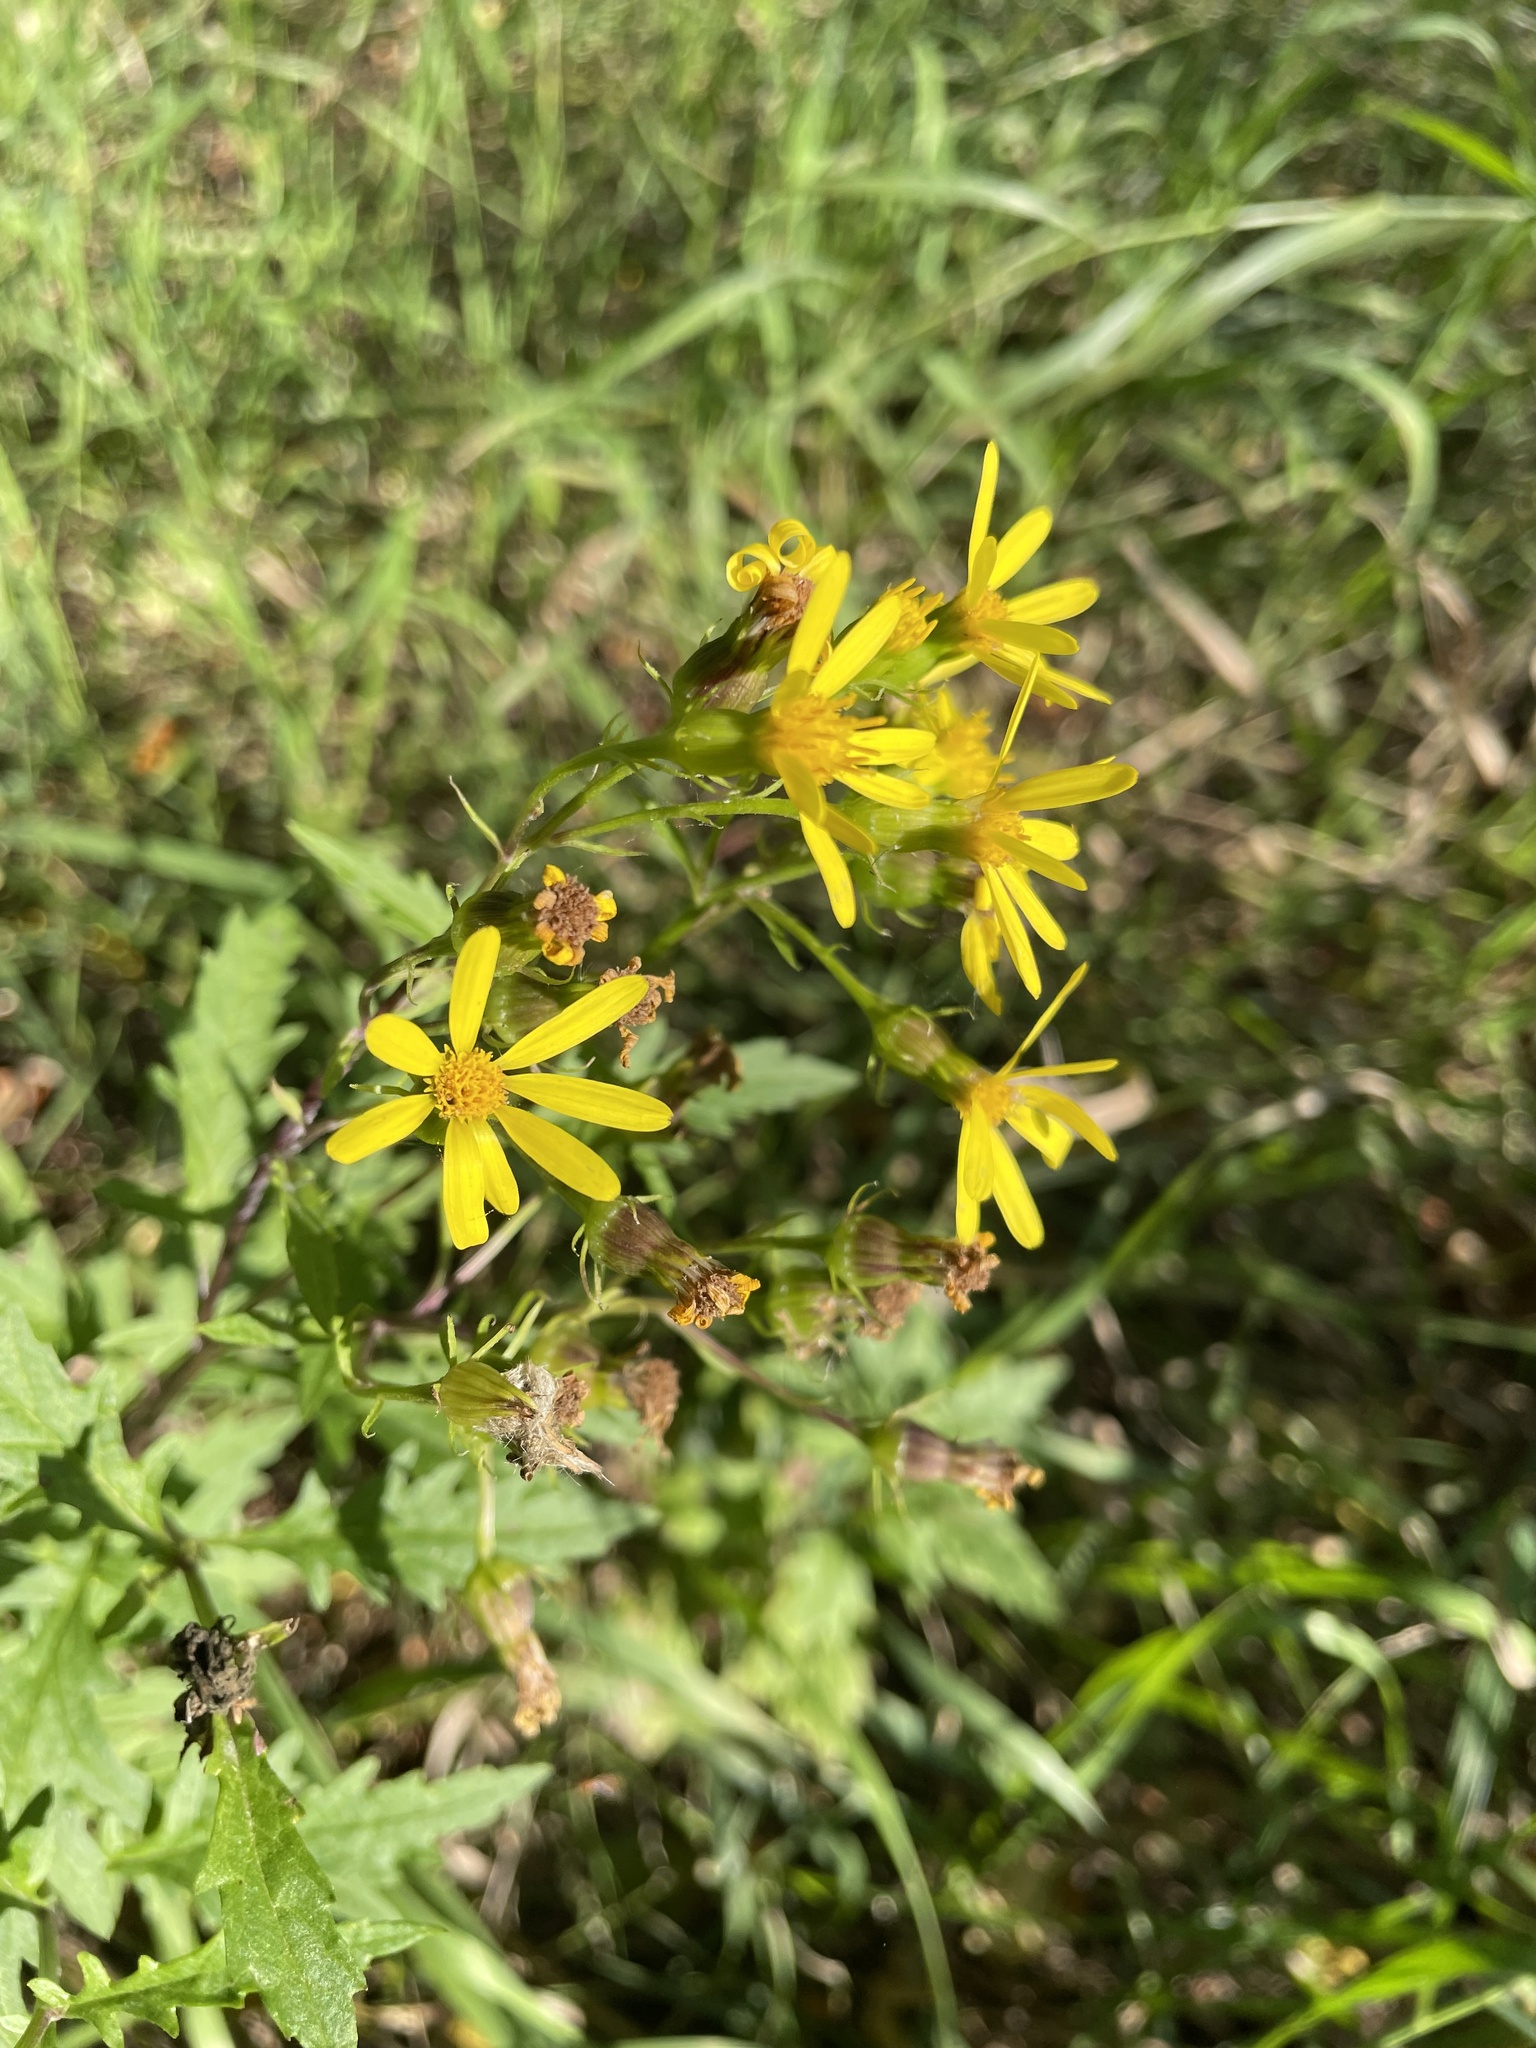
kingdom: Plantae
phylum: Tracheophyta
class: Magnoliopsida
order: Asterales
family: Asteraceae
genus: Senecio
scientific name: Senecio eremophilus
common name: Desert ragwort
